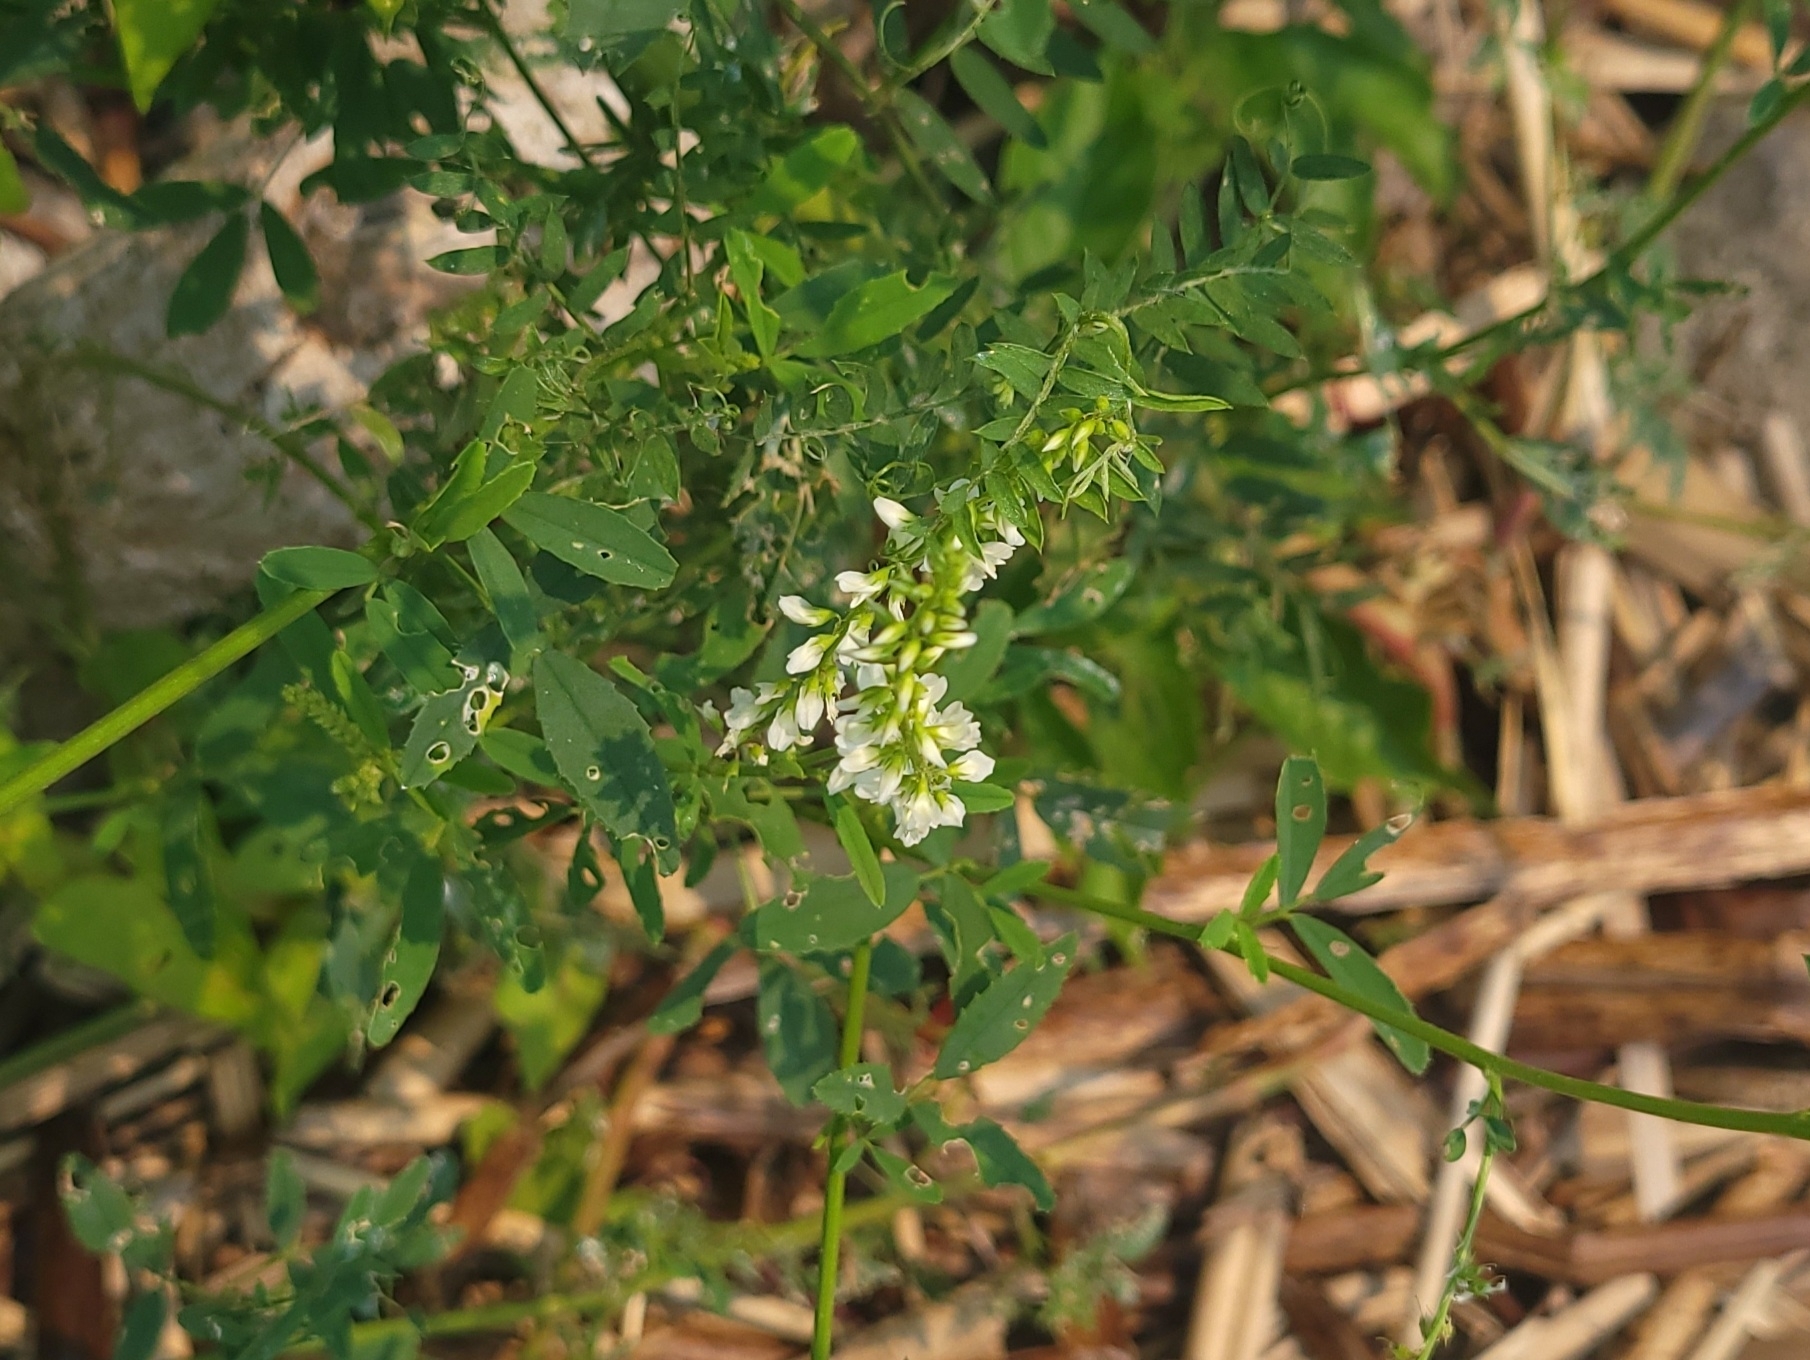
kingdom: Plantae
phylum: Tracheophyta
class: Magnoliopsida
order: Fabales
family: Fabaceae
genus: Melilotus
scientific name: Melilotus albus
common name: White melilot
